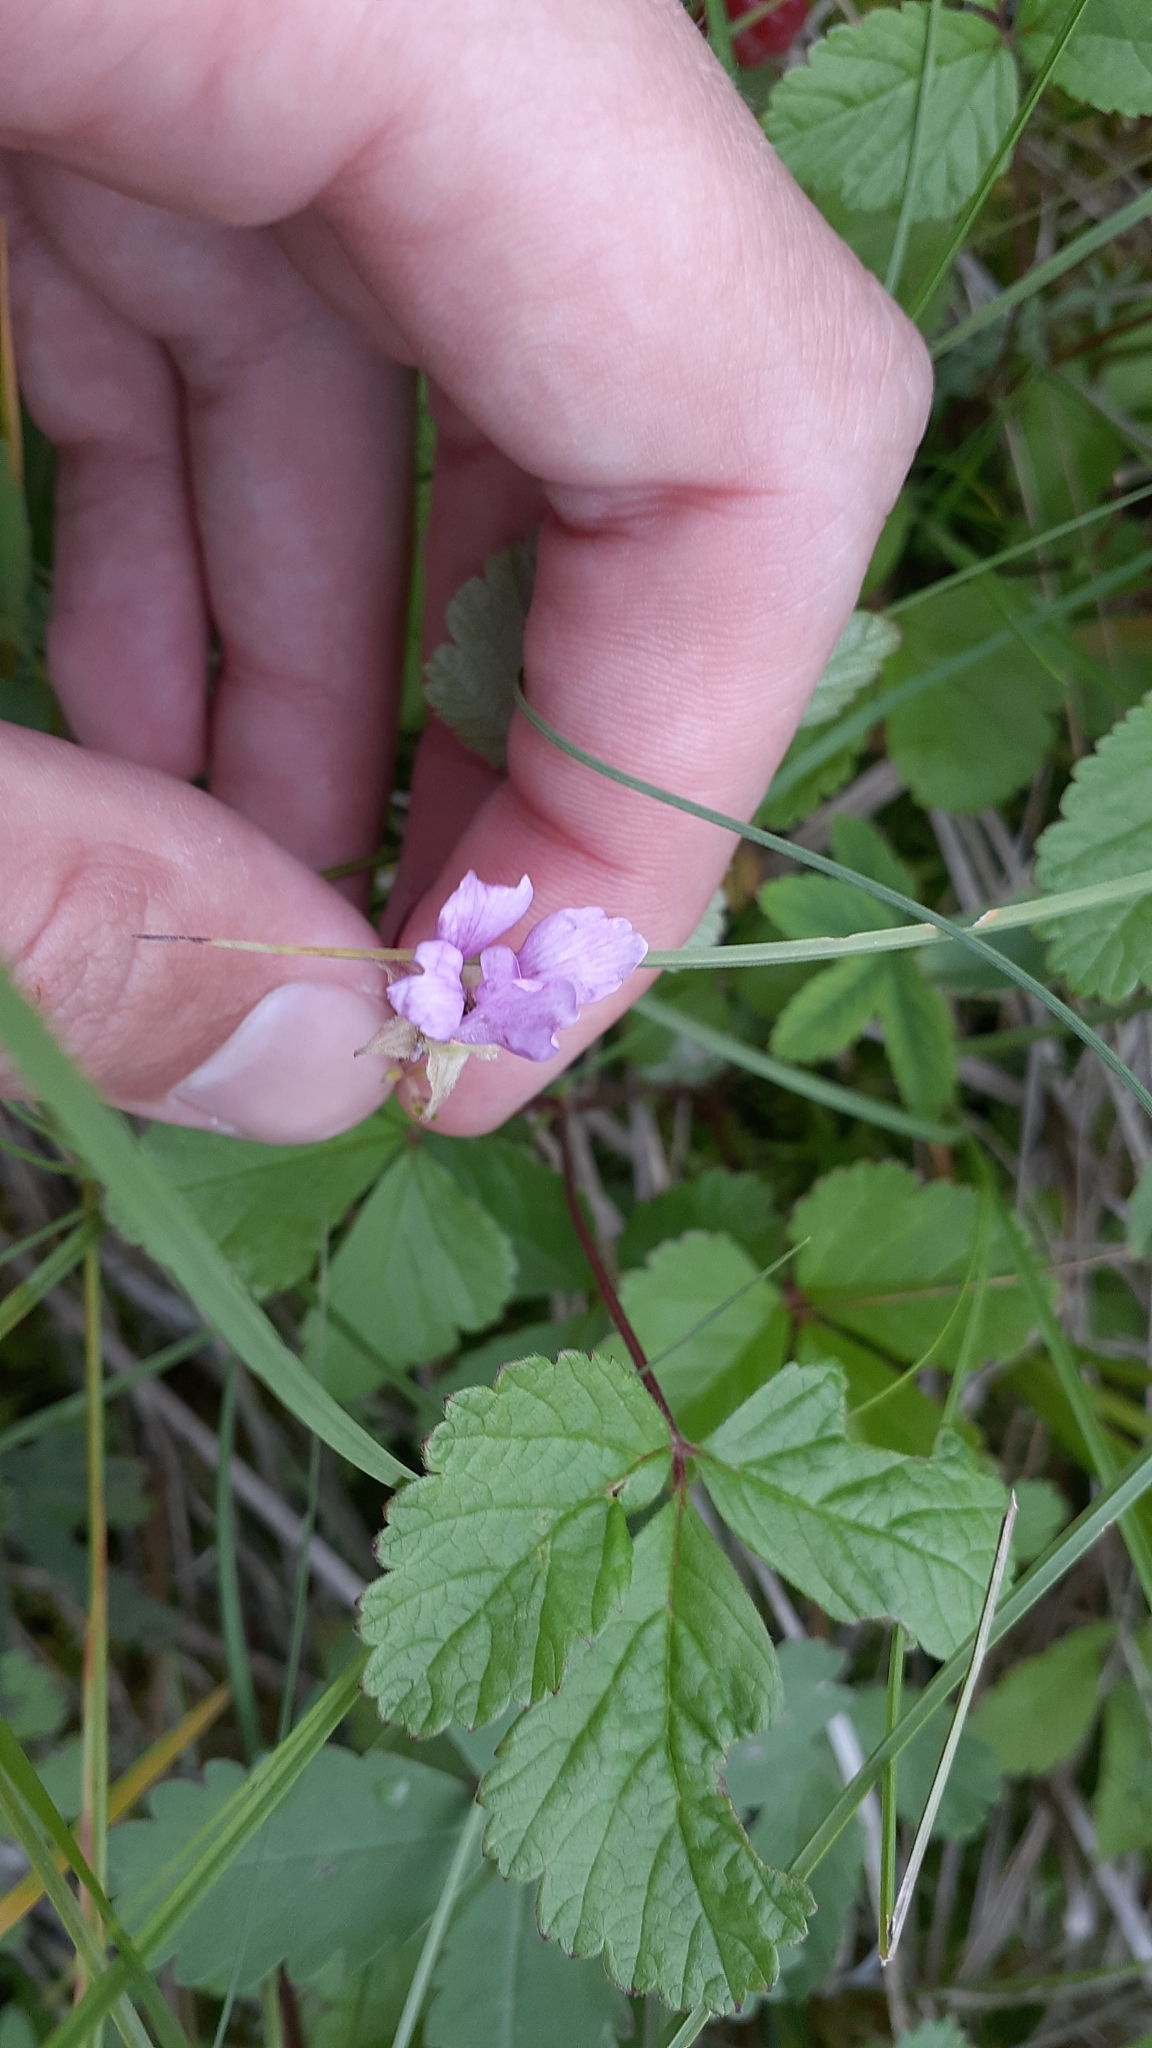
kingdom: Plantae
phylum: Tracheophyta
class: Magnoliopsida
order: Rosales
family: Rosaceae
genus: Rubus
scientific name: Rubus arcticus
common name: Arctic bramble
